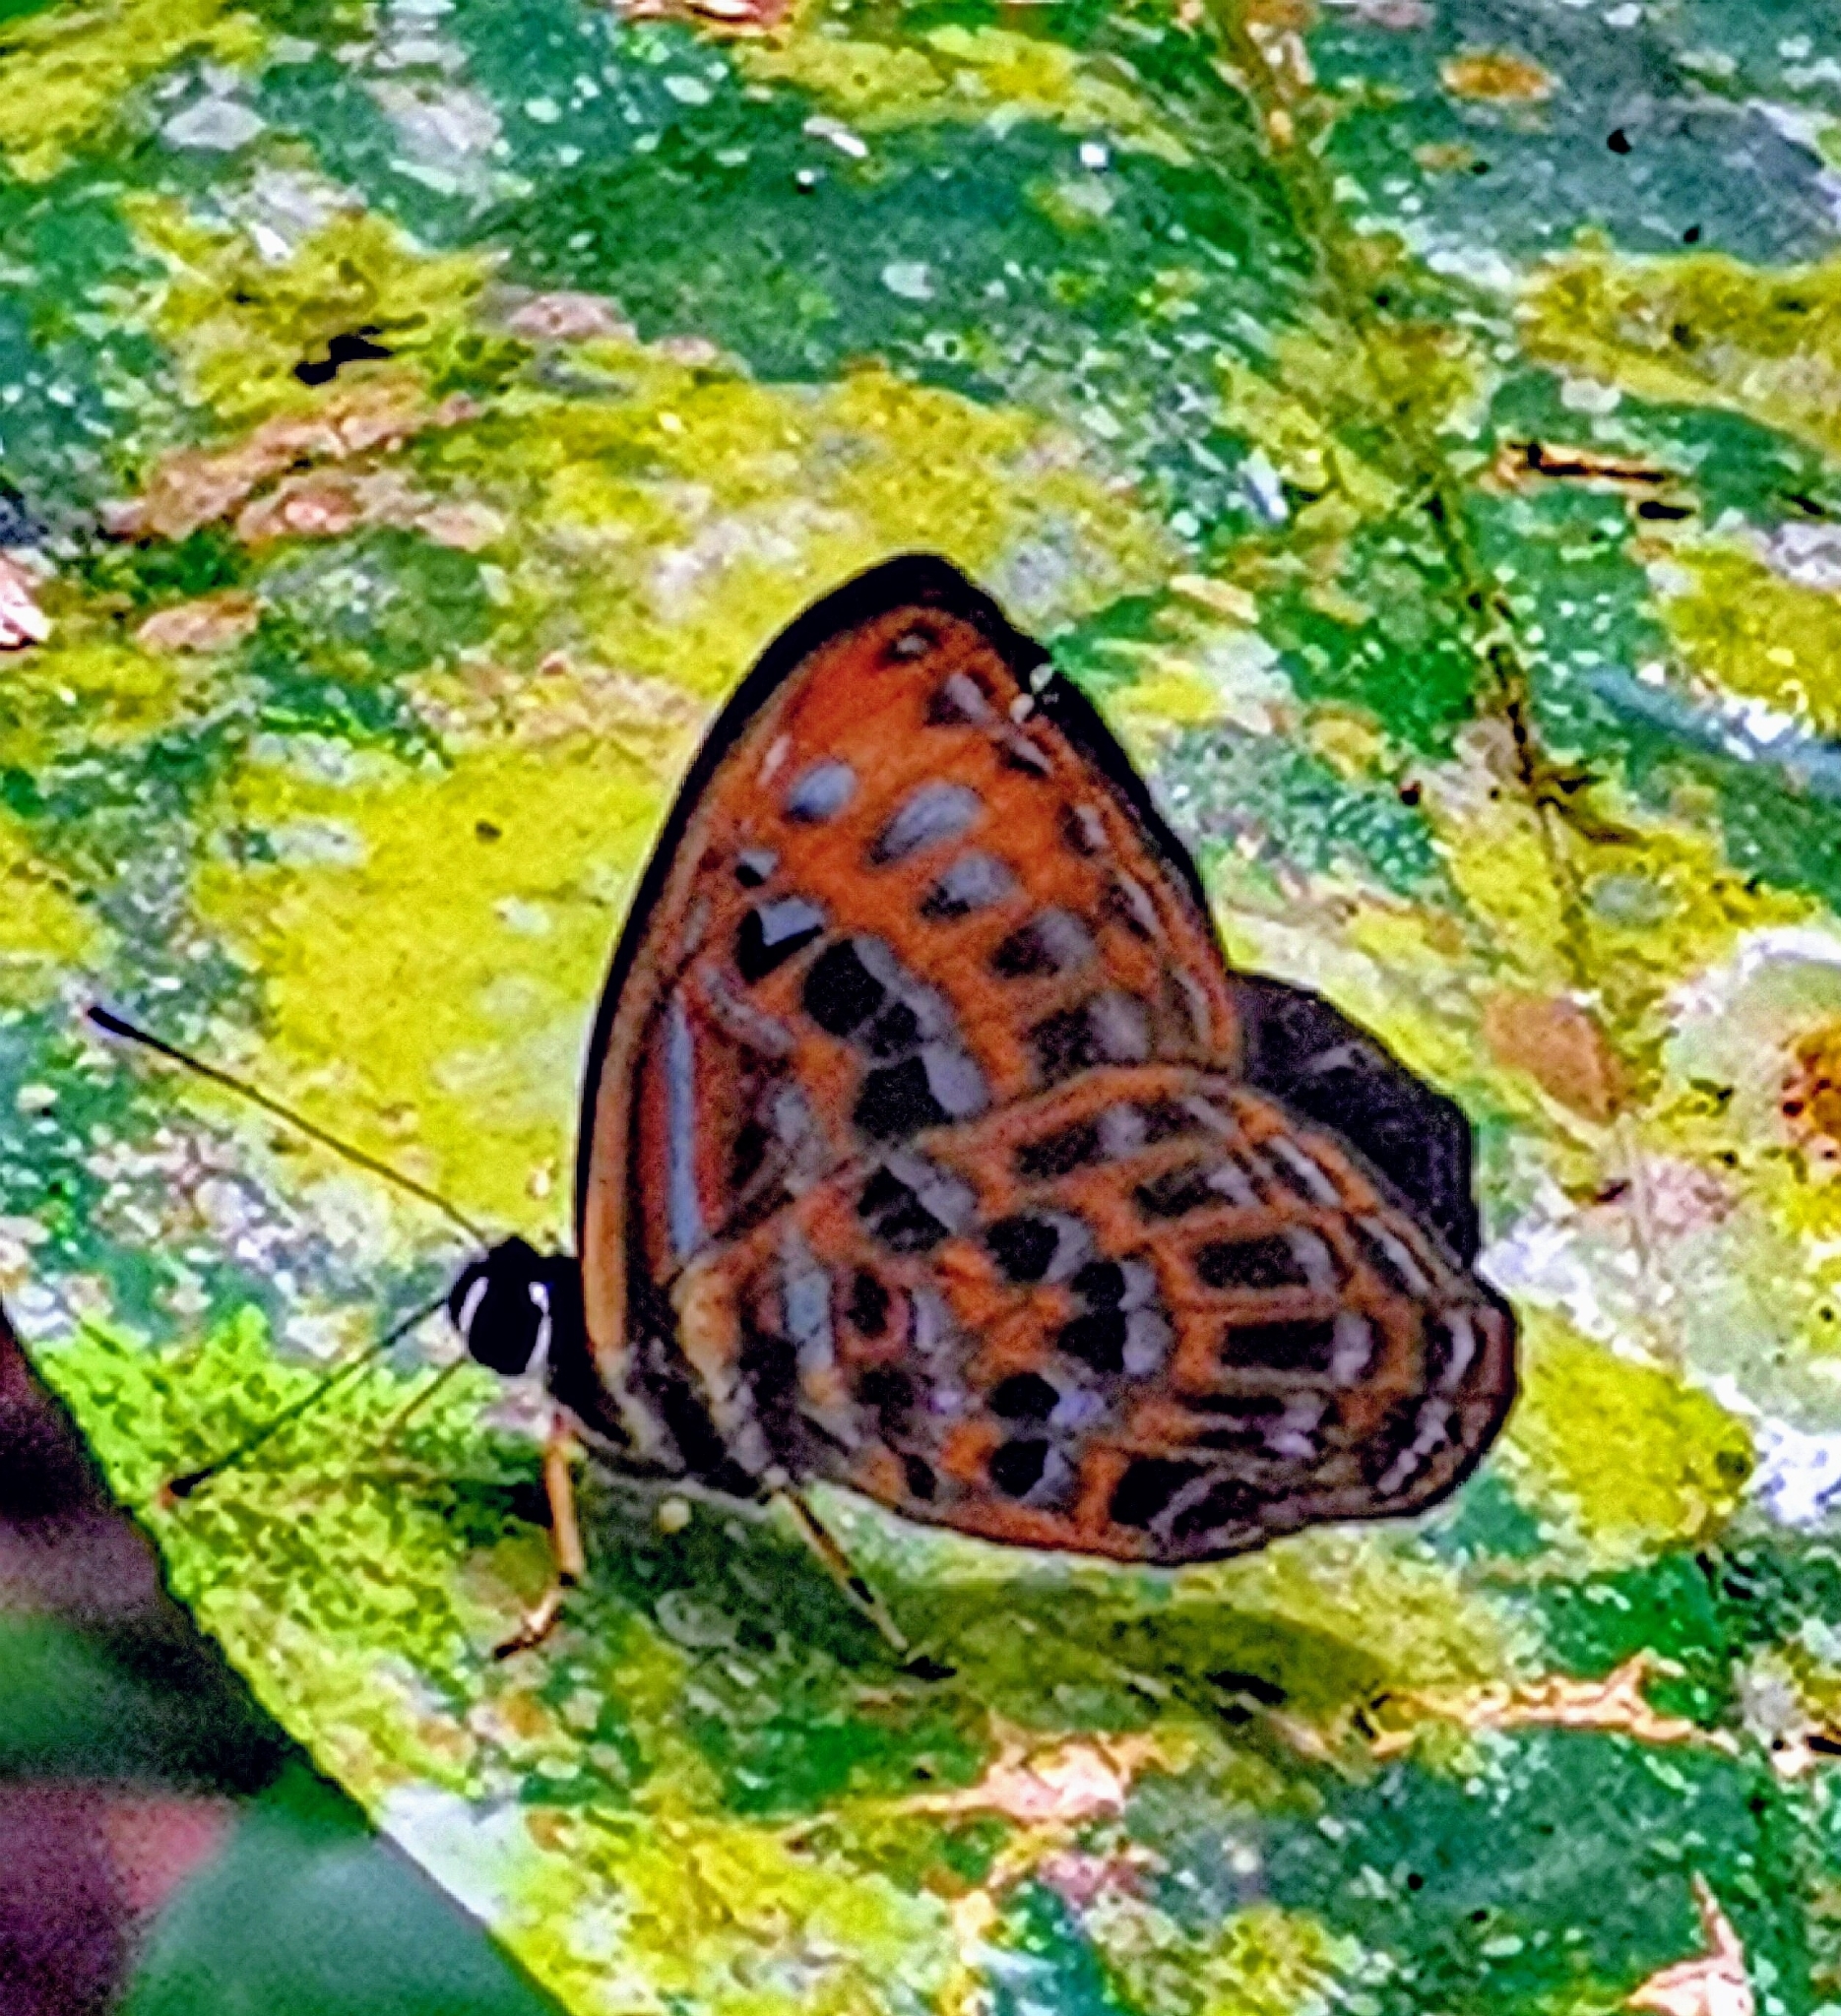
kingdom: Animalia
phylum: Arthropoda
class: Insecta
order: Lepidoptera
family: Riodinidae
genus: Laxita
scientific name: Laxita thuisto
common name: Lesser harlequin
